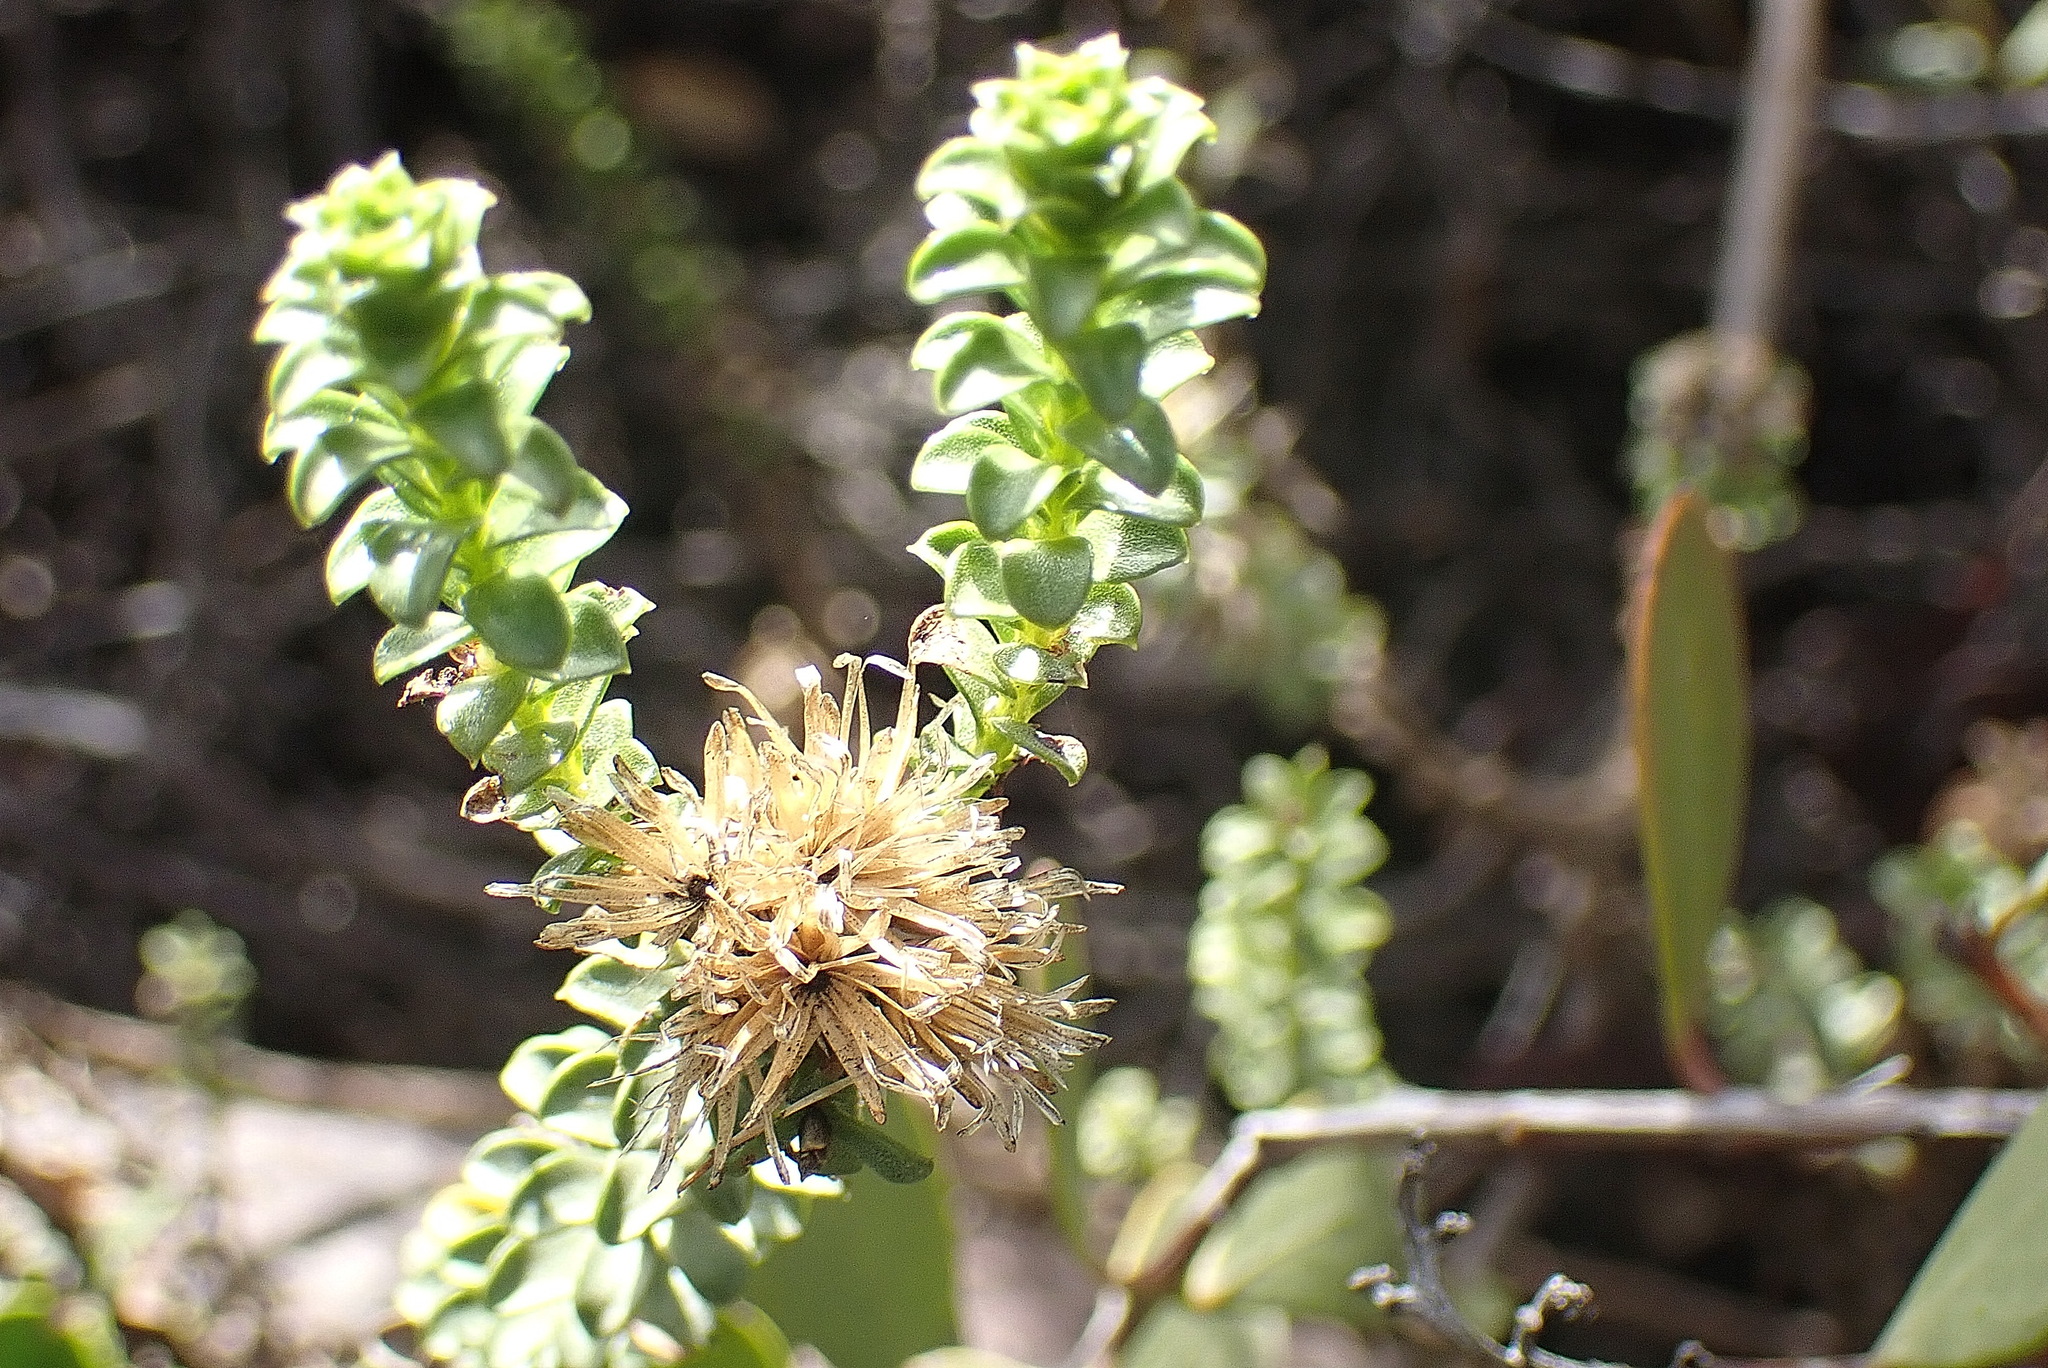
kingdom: Plantae
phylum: Tracheophyta
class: Magnoliopsida
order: Asterales
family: Asteraceae
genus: Oedera
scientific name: Oedera squarrosa
